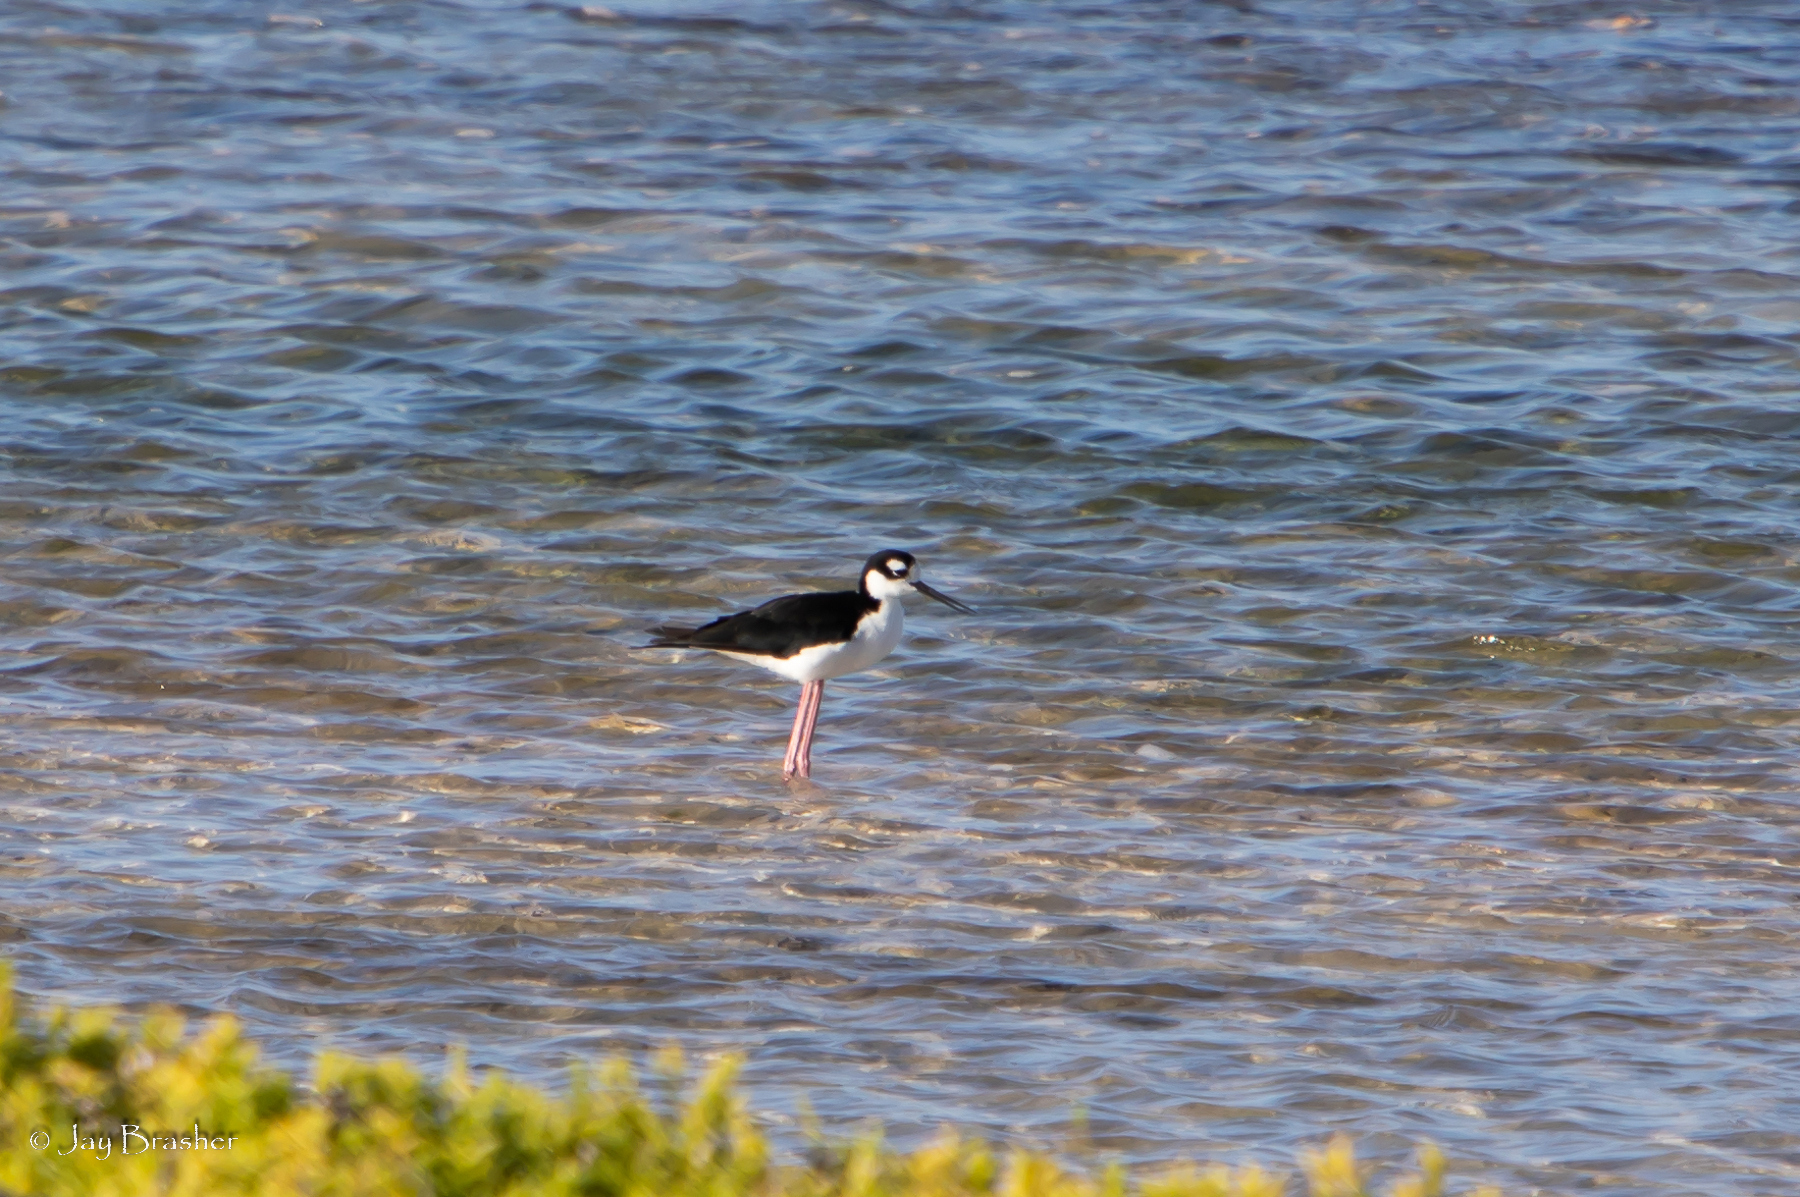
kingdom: Animalia
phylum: Chordata
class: Aves
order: Charadriiformes
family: Recurvirostridae
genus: Himantopus
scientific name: Himantopus mexicanus
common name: Black-necked stilt
